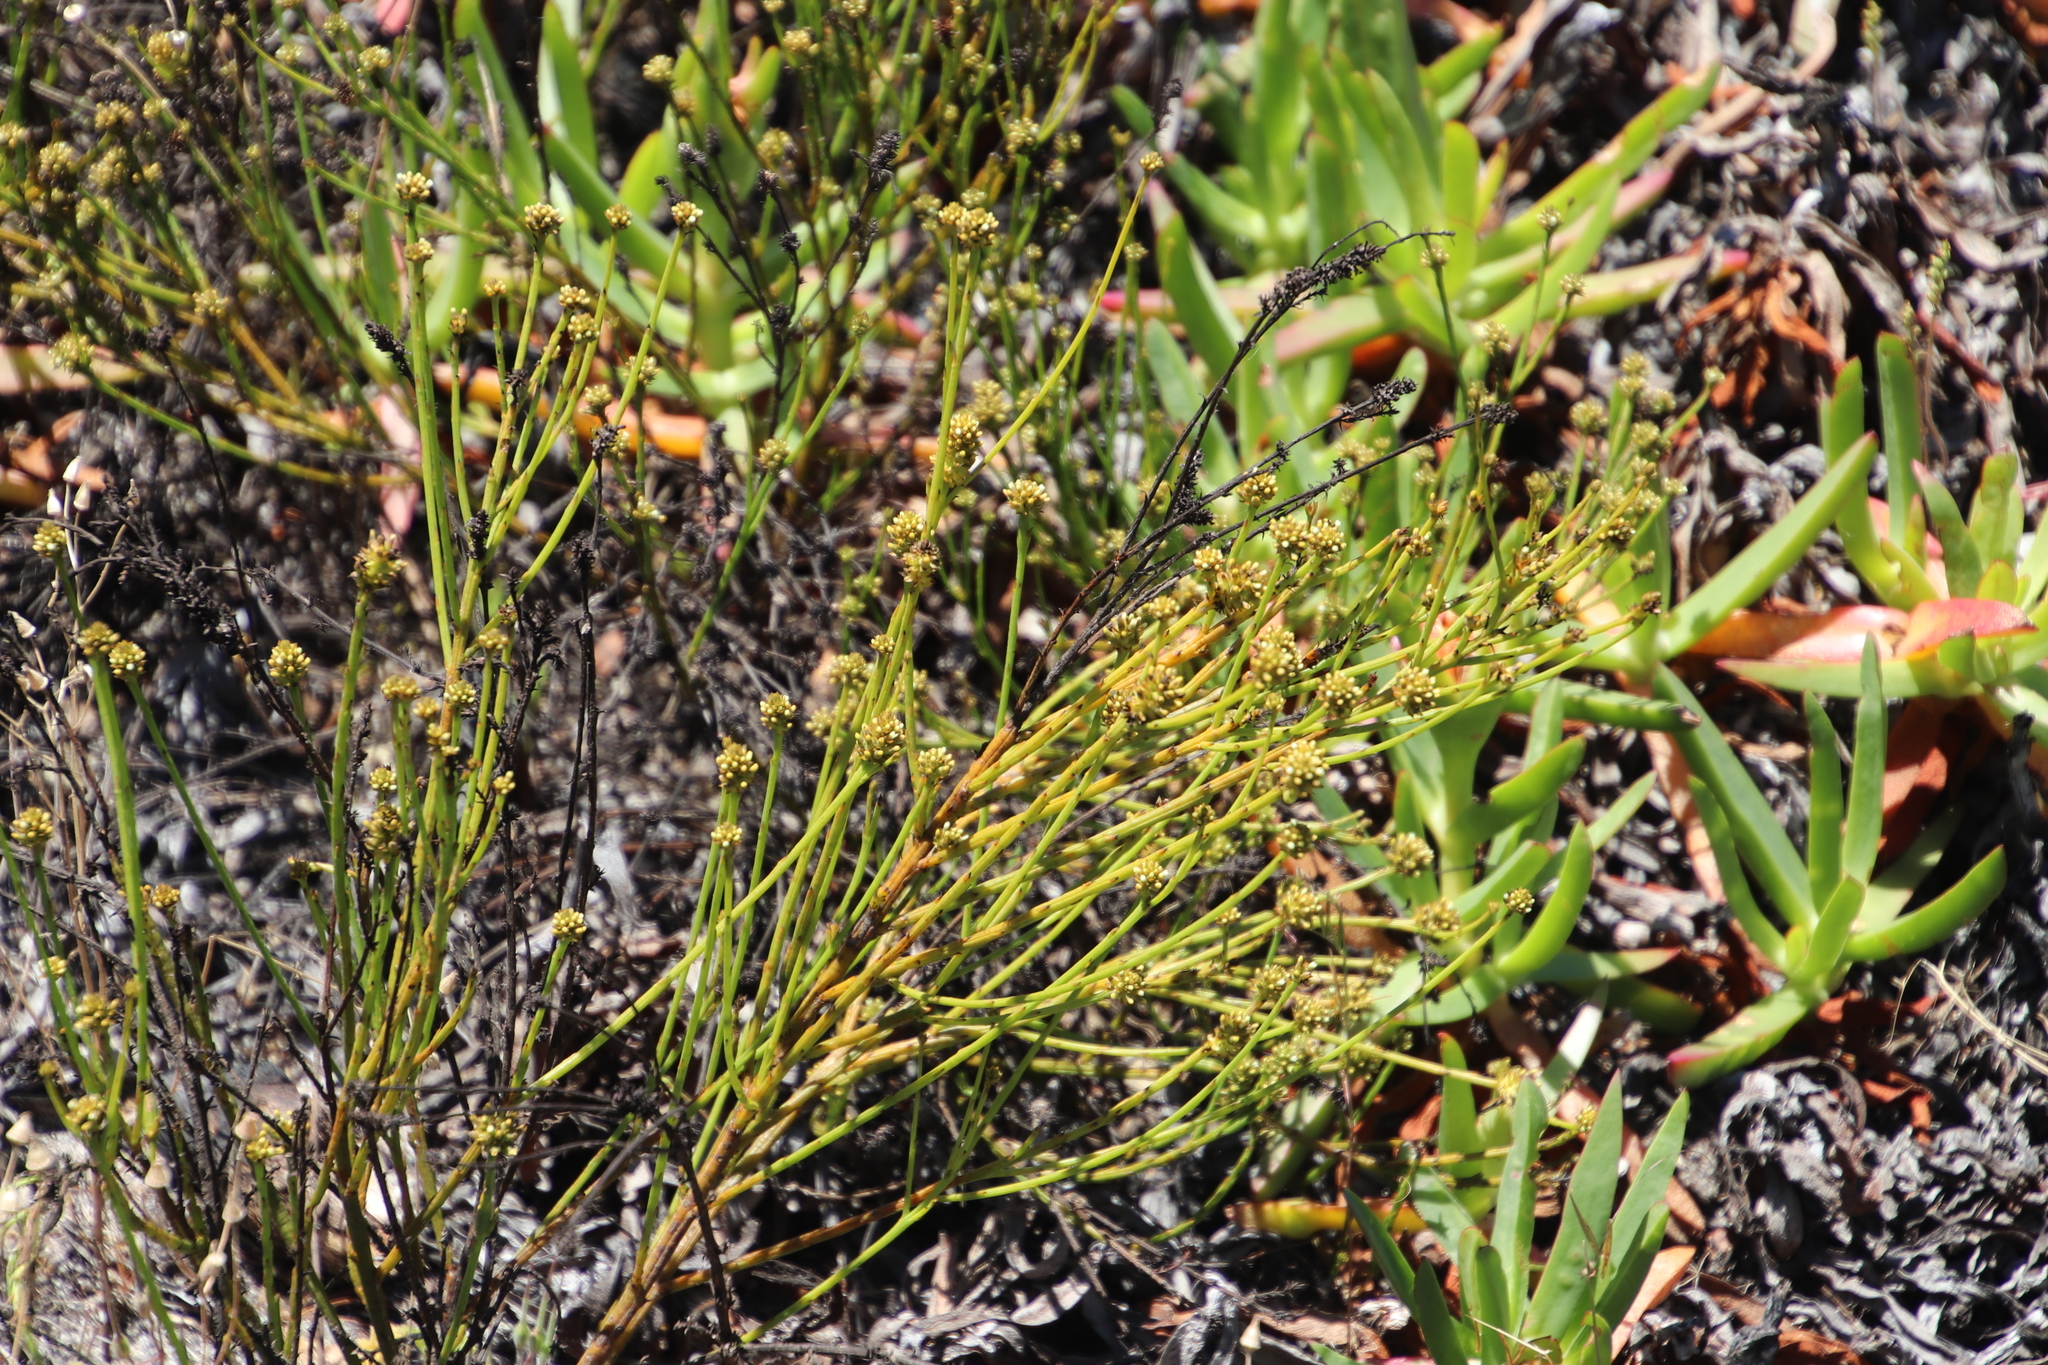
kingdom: Plantae
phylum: Tracheophyta
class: Magnoliopsida
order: Santalales
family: Thesiaceae
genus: Thesium
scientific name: Thesium aggregatum
